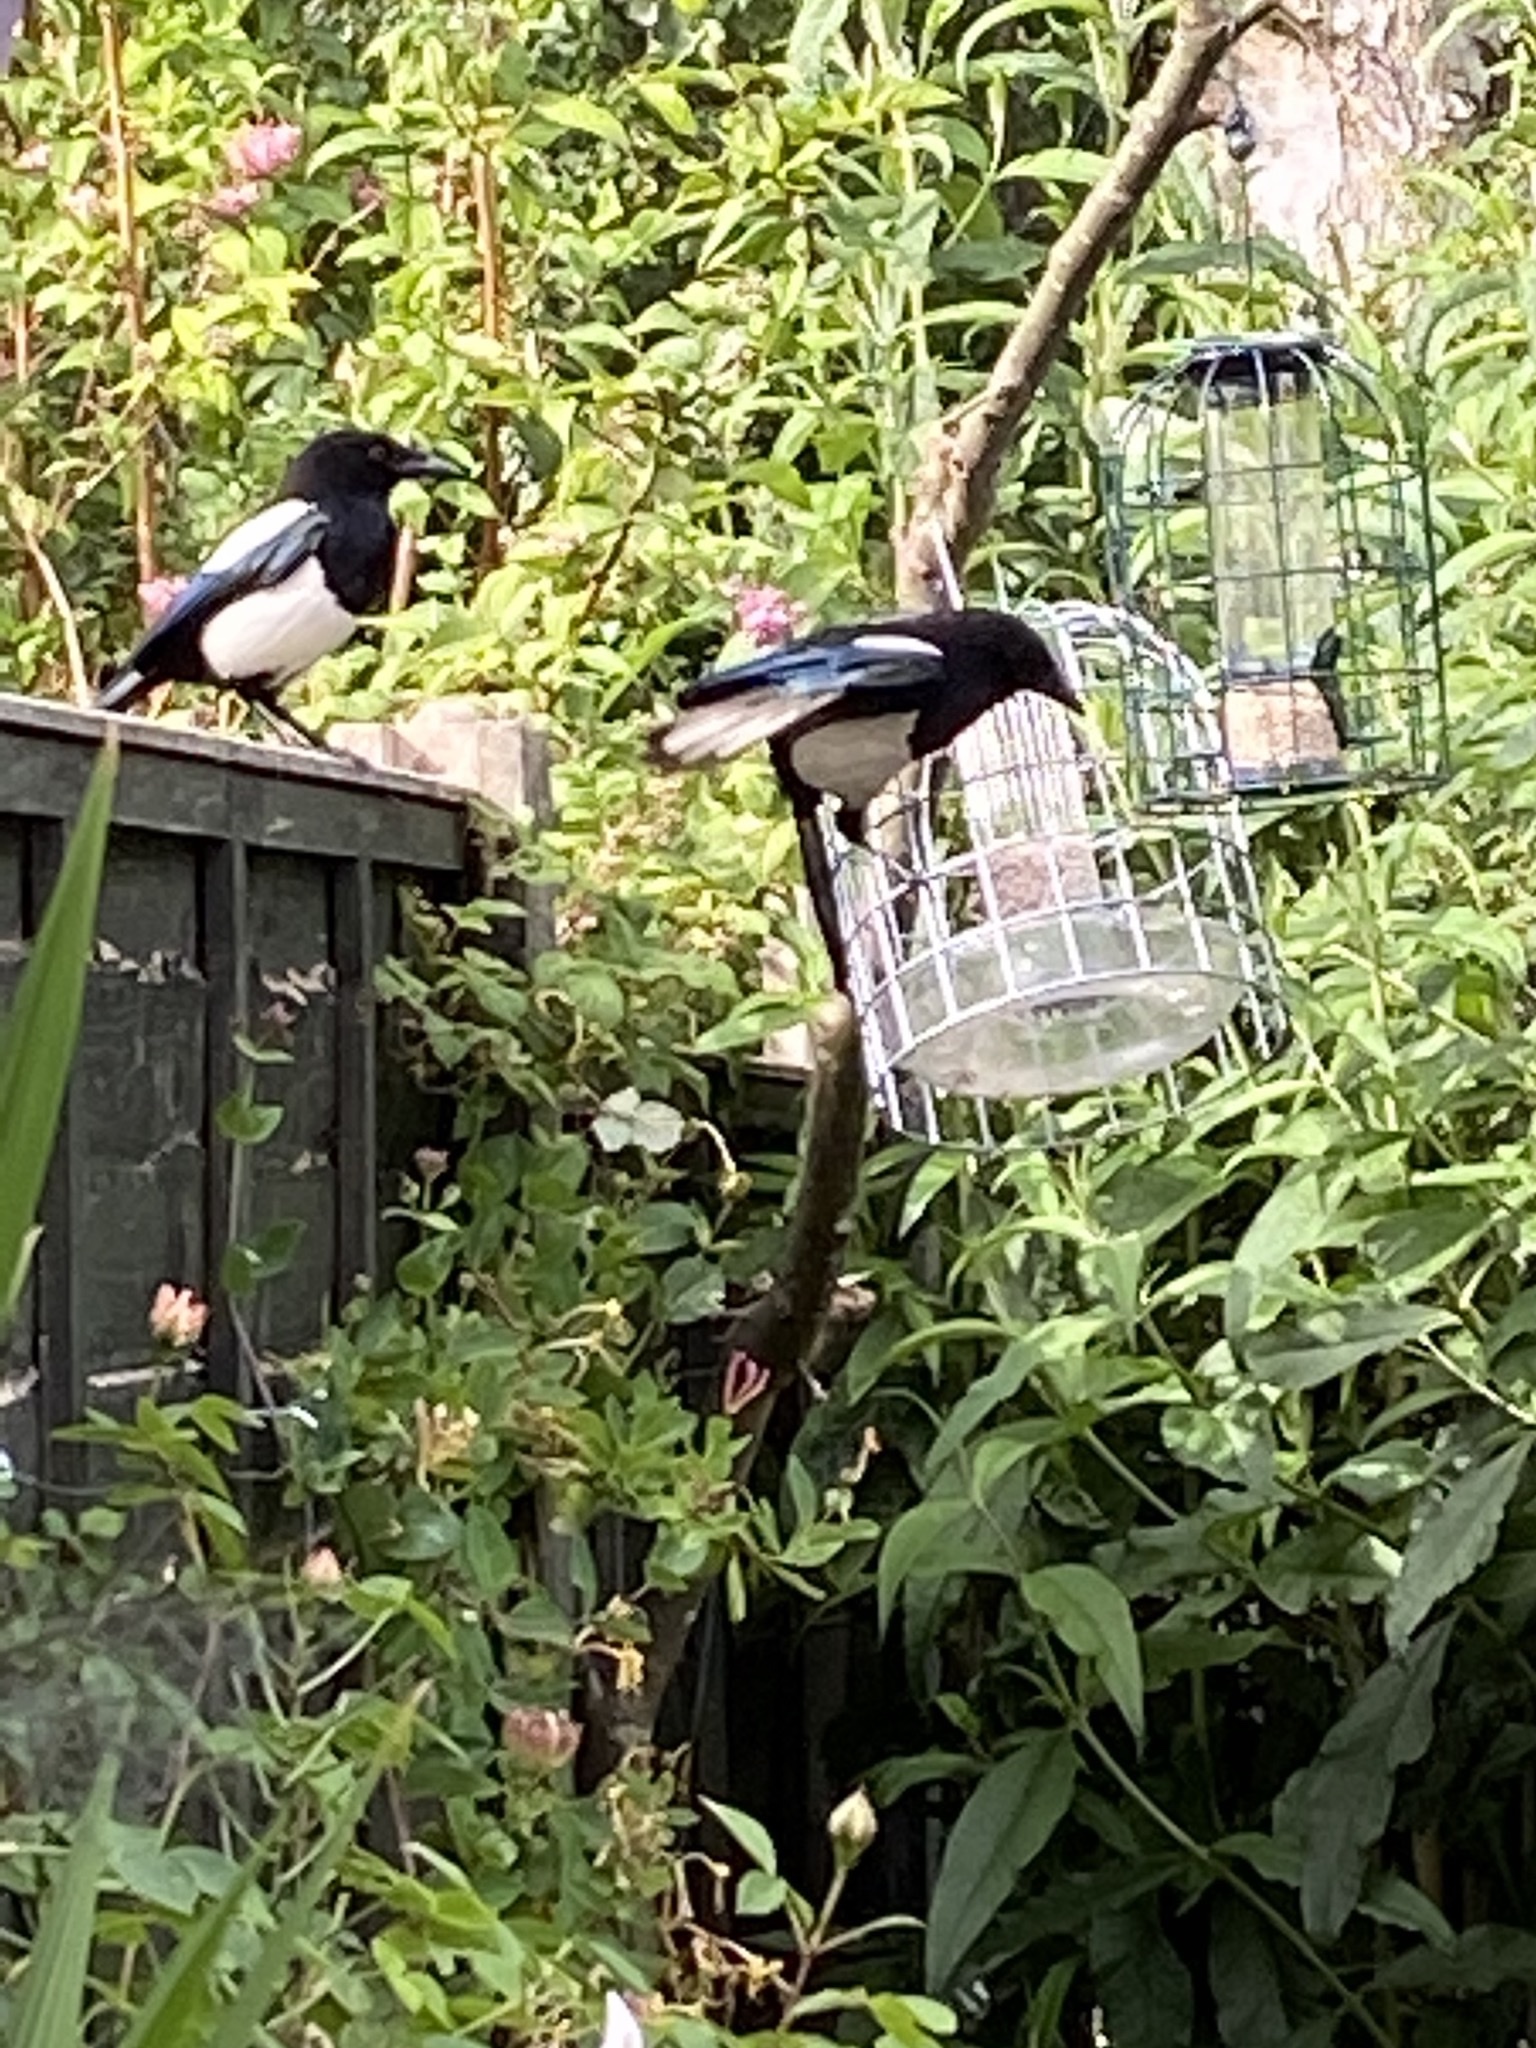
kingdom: Animalia
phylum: Chordata
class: Aves
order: Passeriformes
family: Corvidae
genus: Pica
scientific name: Pica pica
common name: Eurasian magpie
